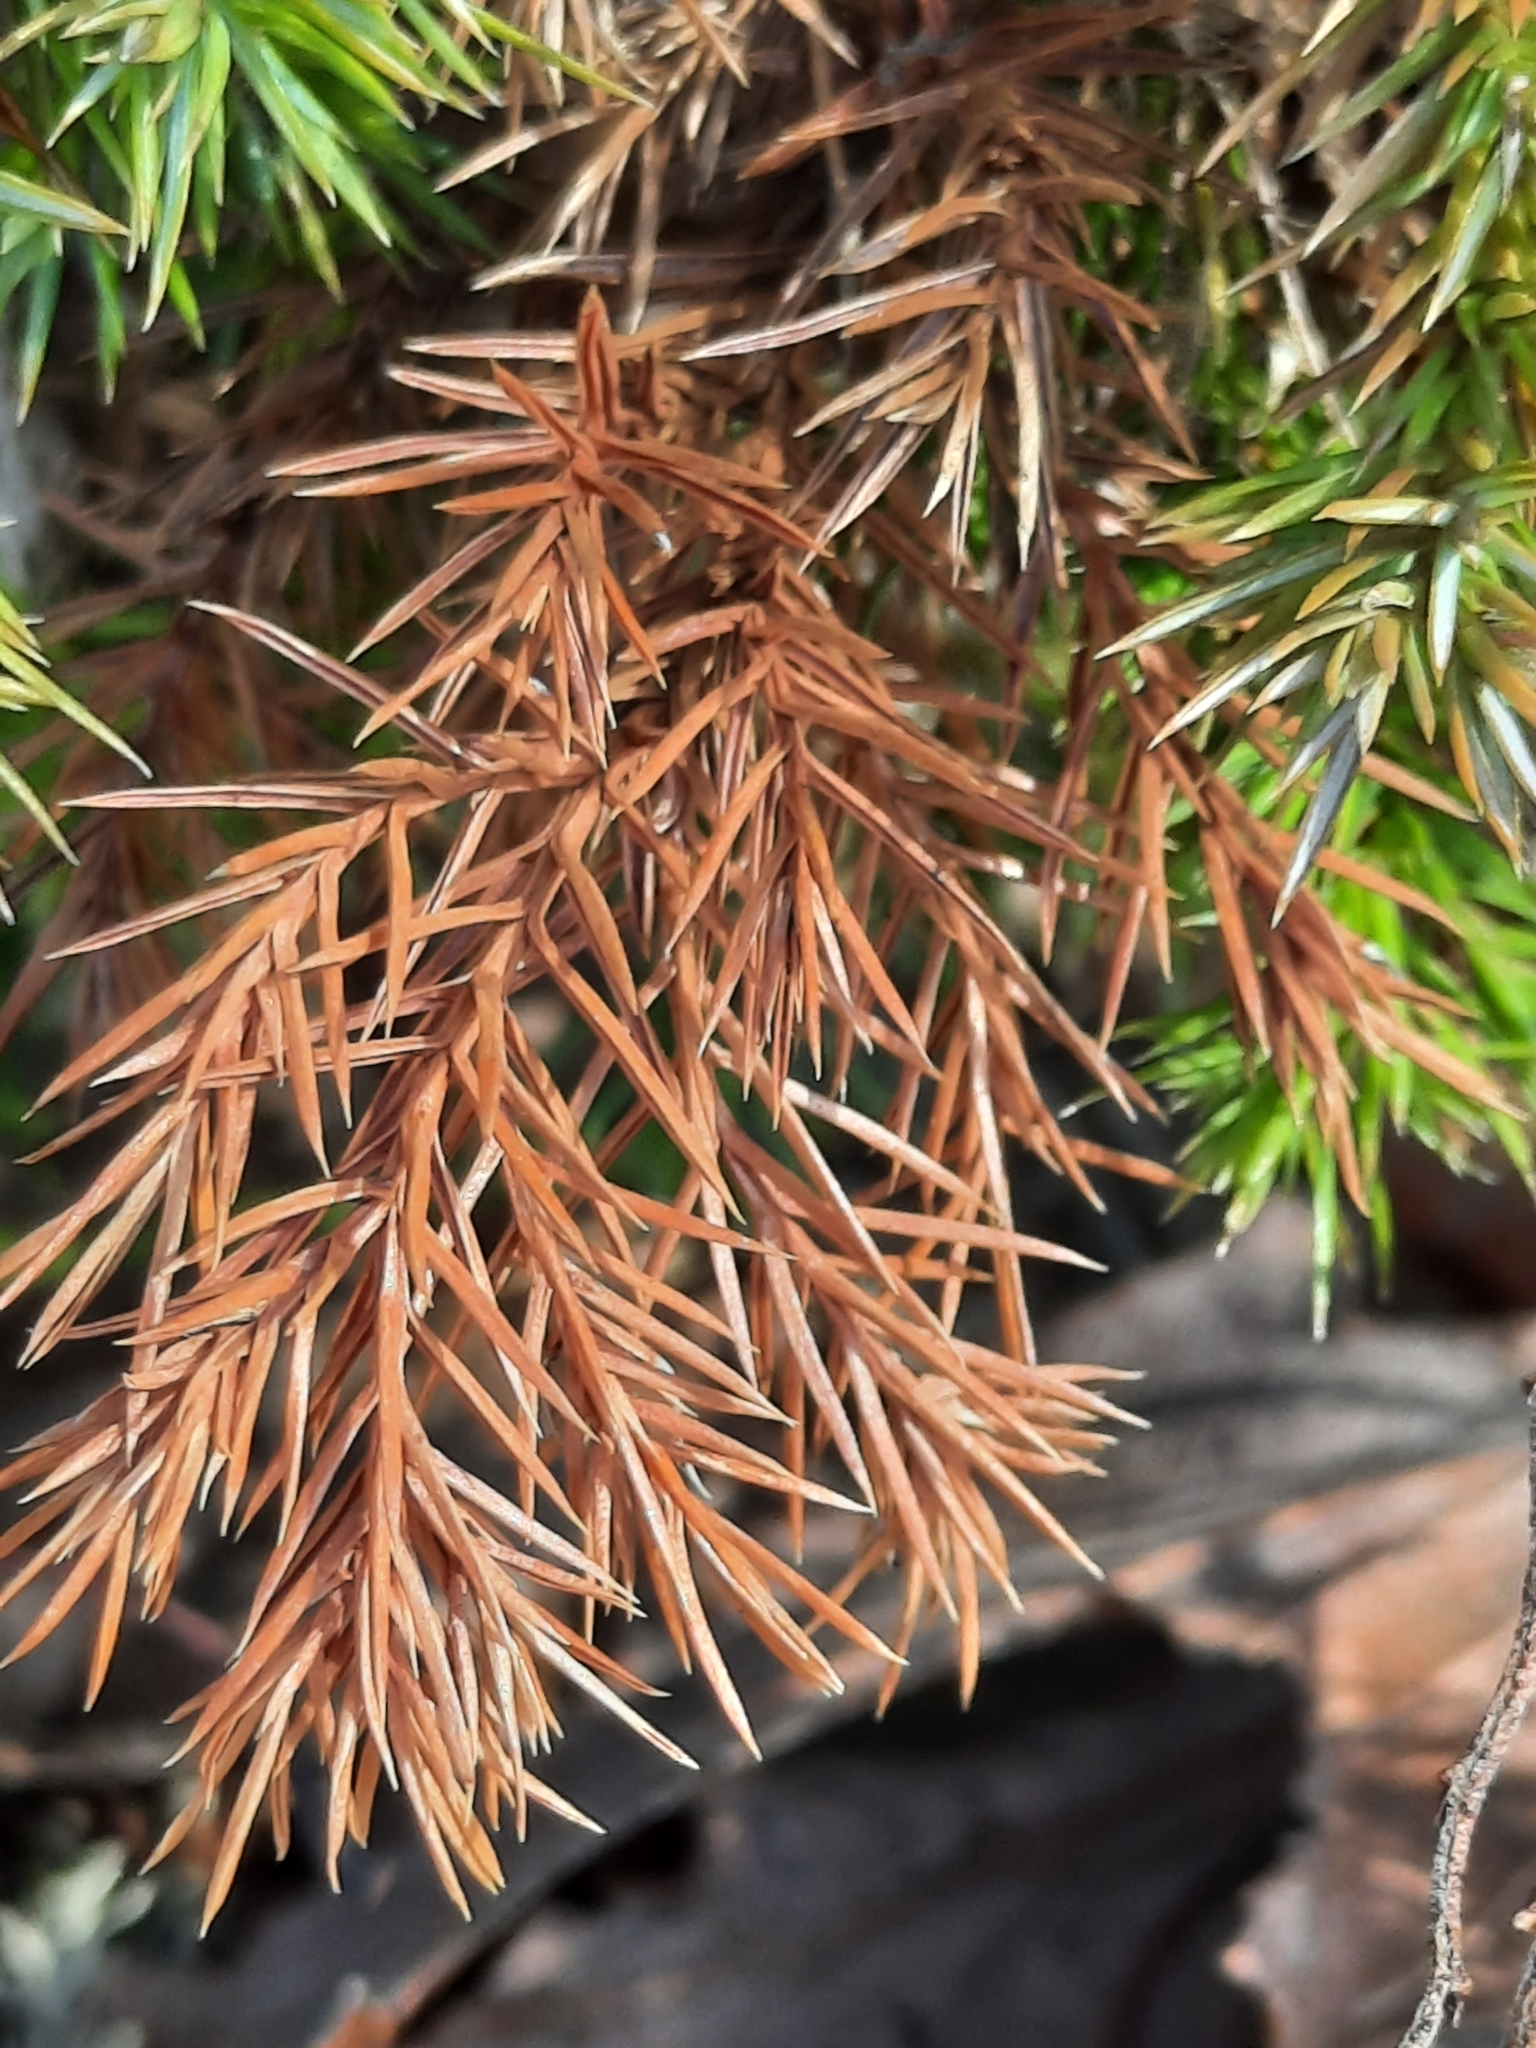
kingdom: Plantae
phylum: Tracheophyta
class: Pinopsida
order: Pinales
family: Cupressaceae
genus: Juniperus
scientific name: Juniperus virginiana
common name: Red juniper
